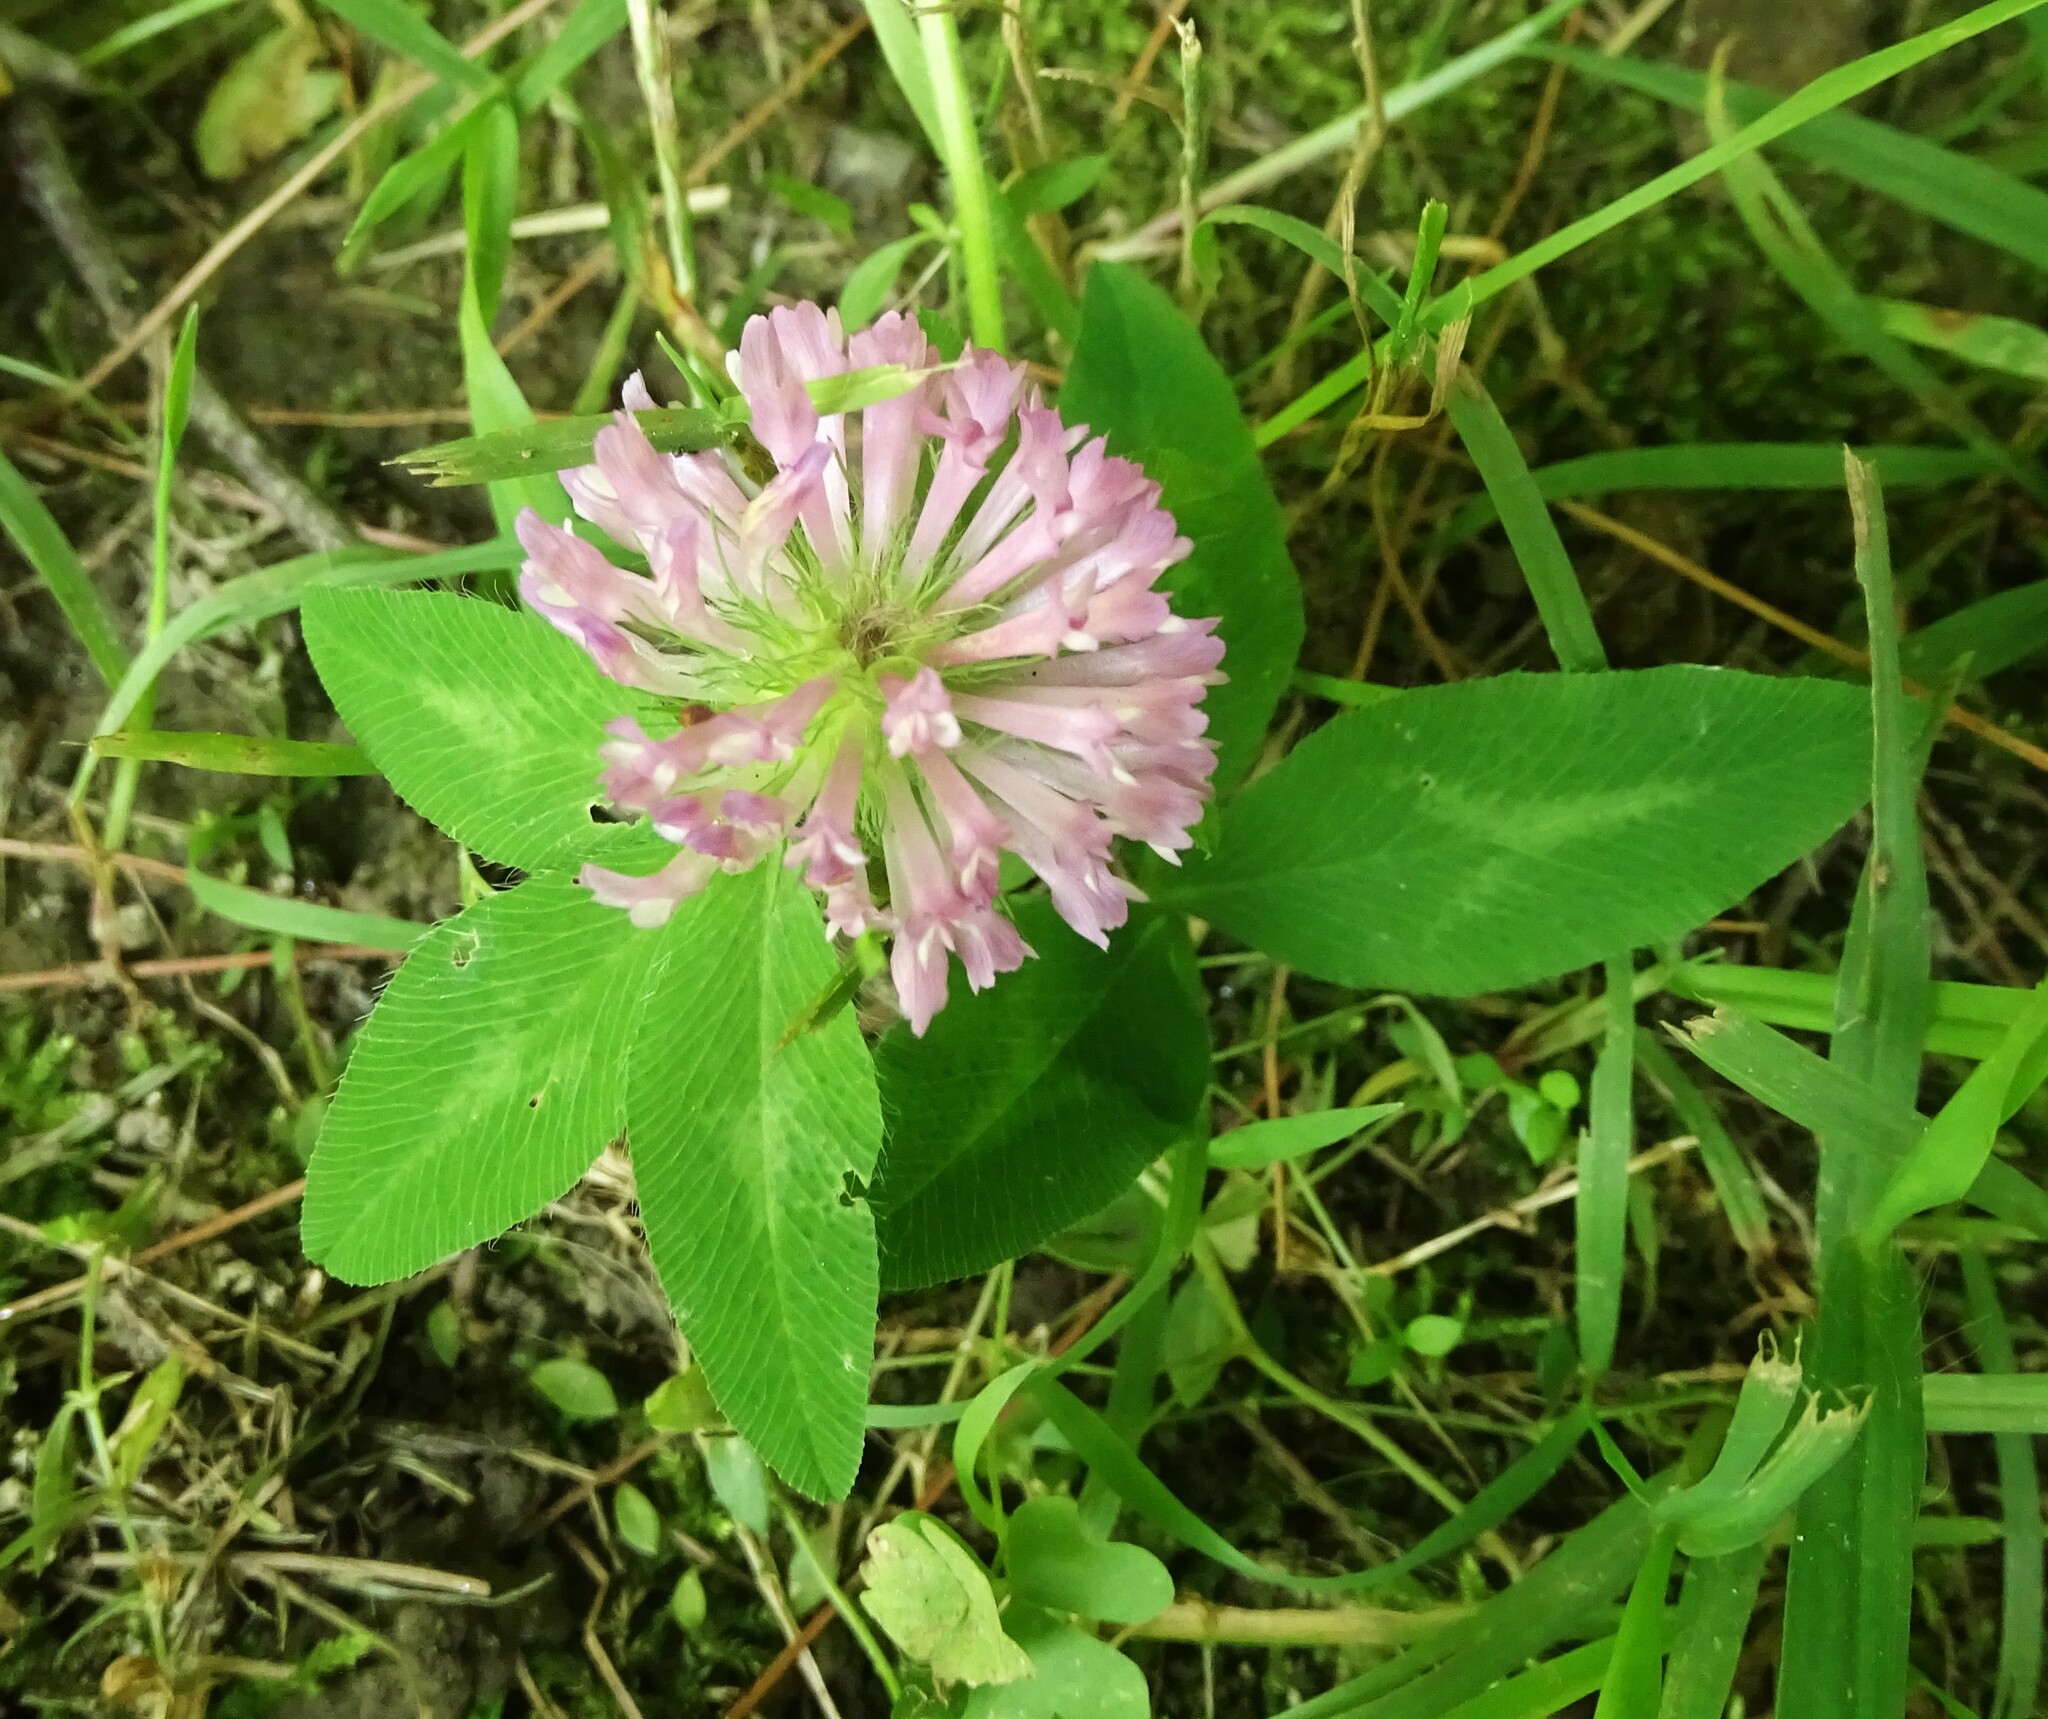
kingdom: Plantae
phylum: Tracheophyta
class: Magnoliopsida
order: Fabales
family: Fabaceae
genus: Trifolium
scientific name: Trifolium pratense
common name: Red clover
